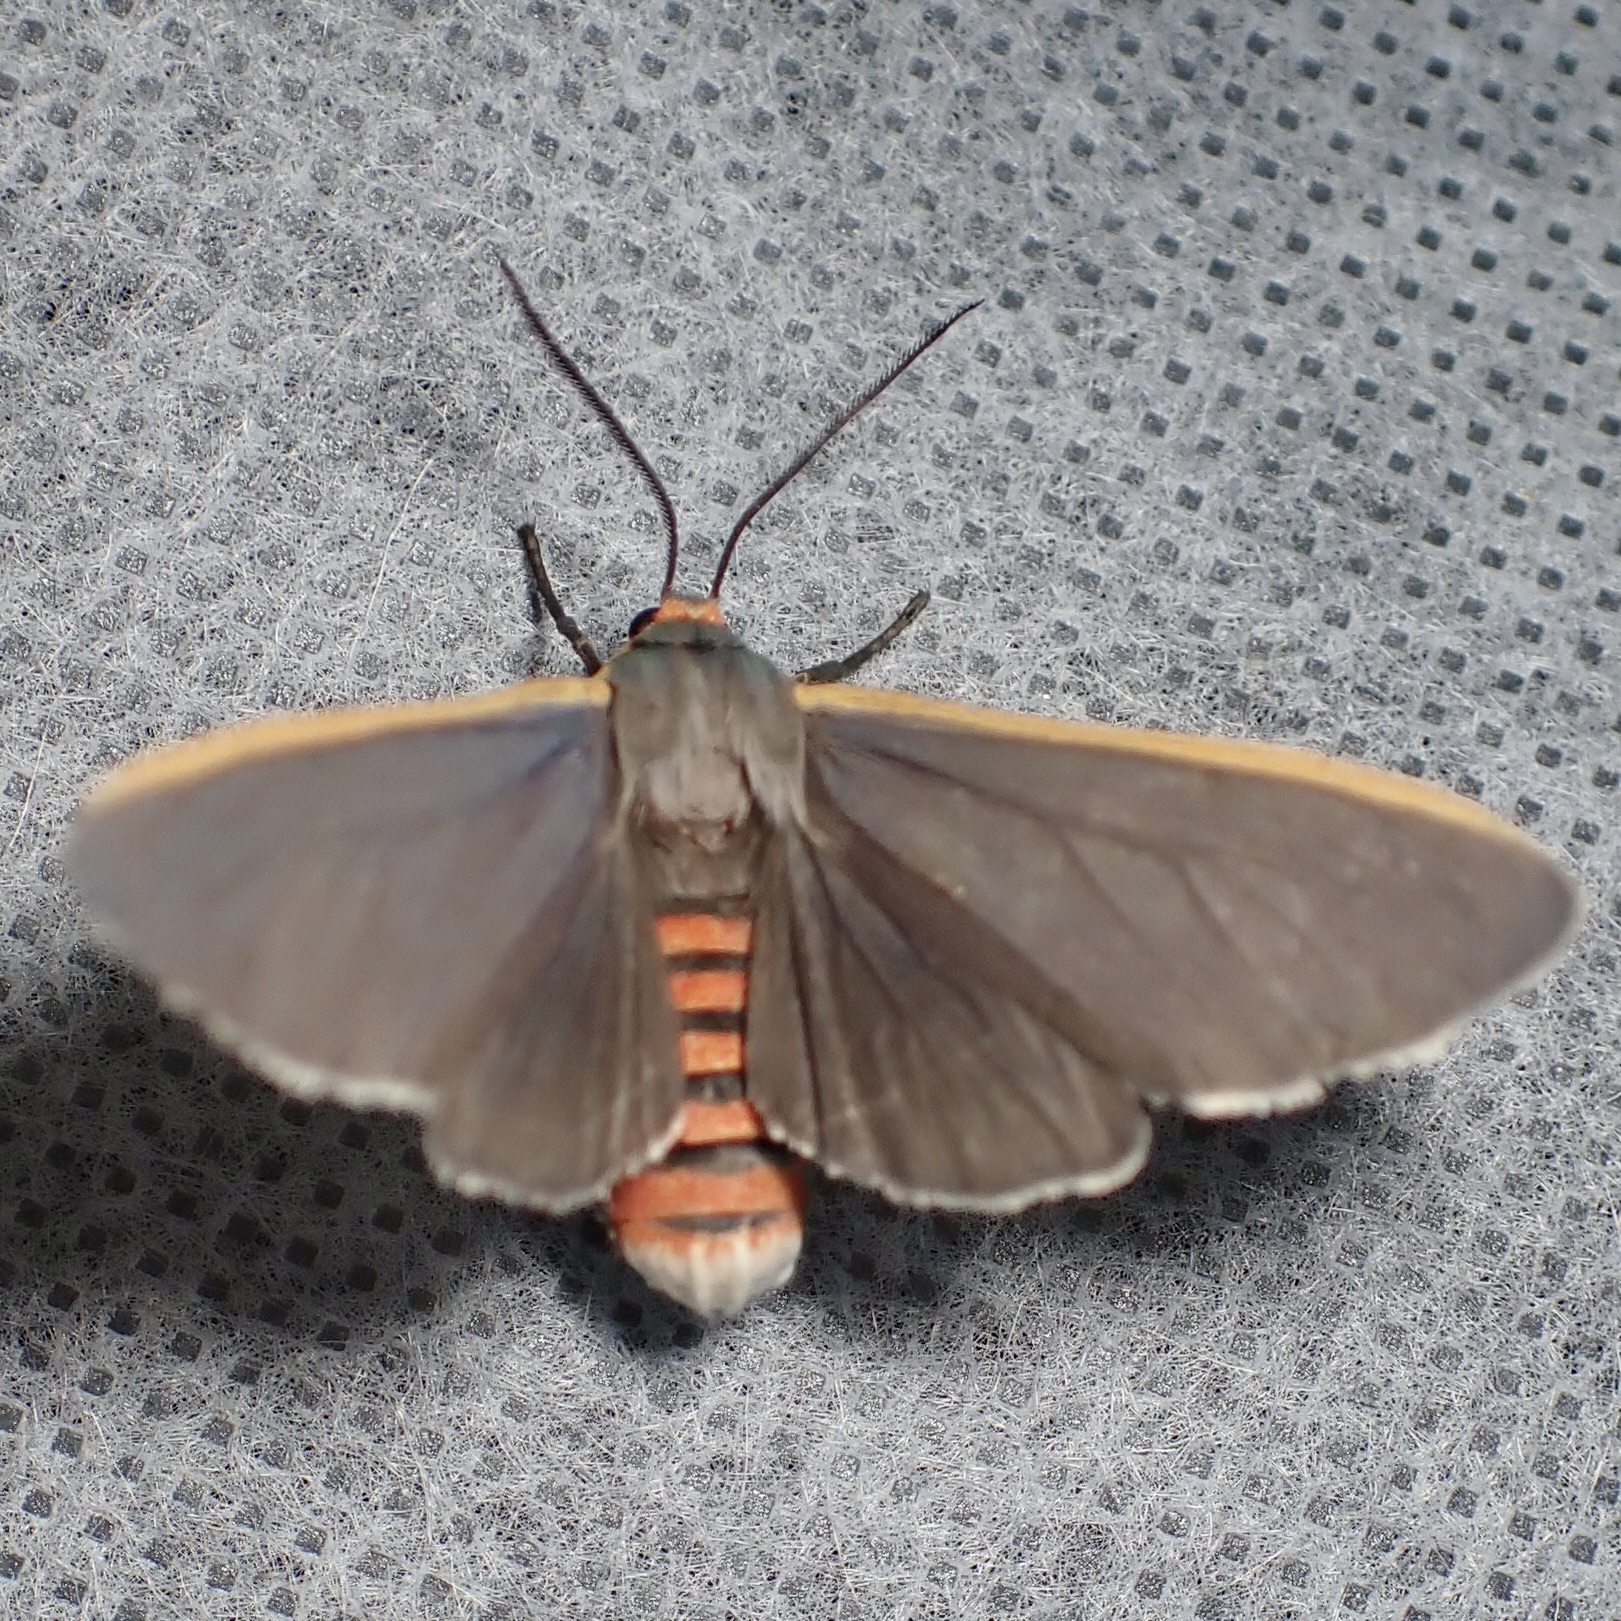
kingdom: Animalia
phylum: Arthropoda
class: Insecta
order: Lepidoptera
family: Erebidae
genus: Euchaetes
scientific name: Euchaetes antica
